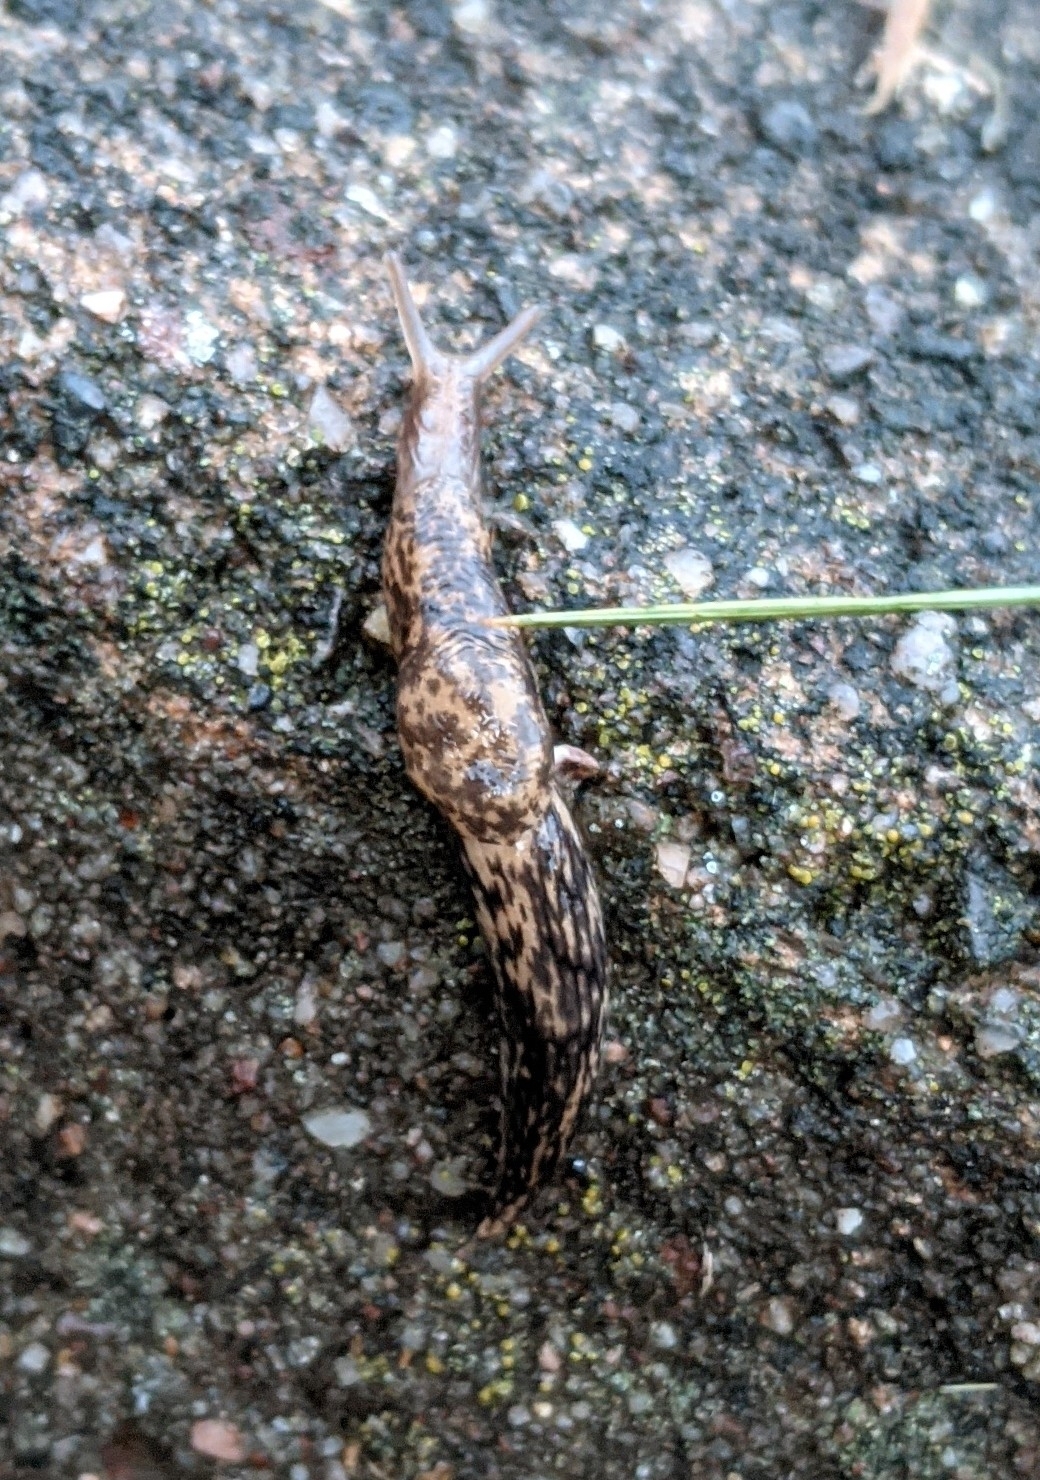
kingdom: Animalia
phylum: Mollusca
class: Gastropoda
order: Stylommatophora
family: Agriolimacidae
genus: Deroceras
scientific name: Deroceras reticulatum
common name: Gray field slug
